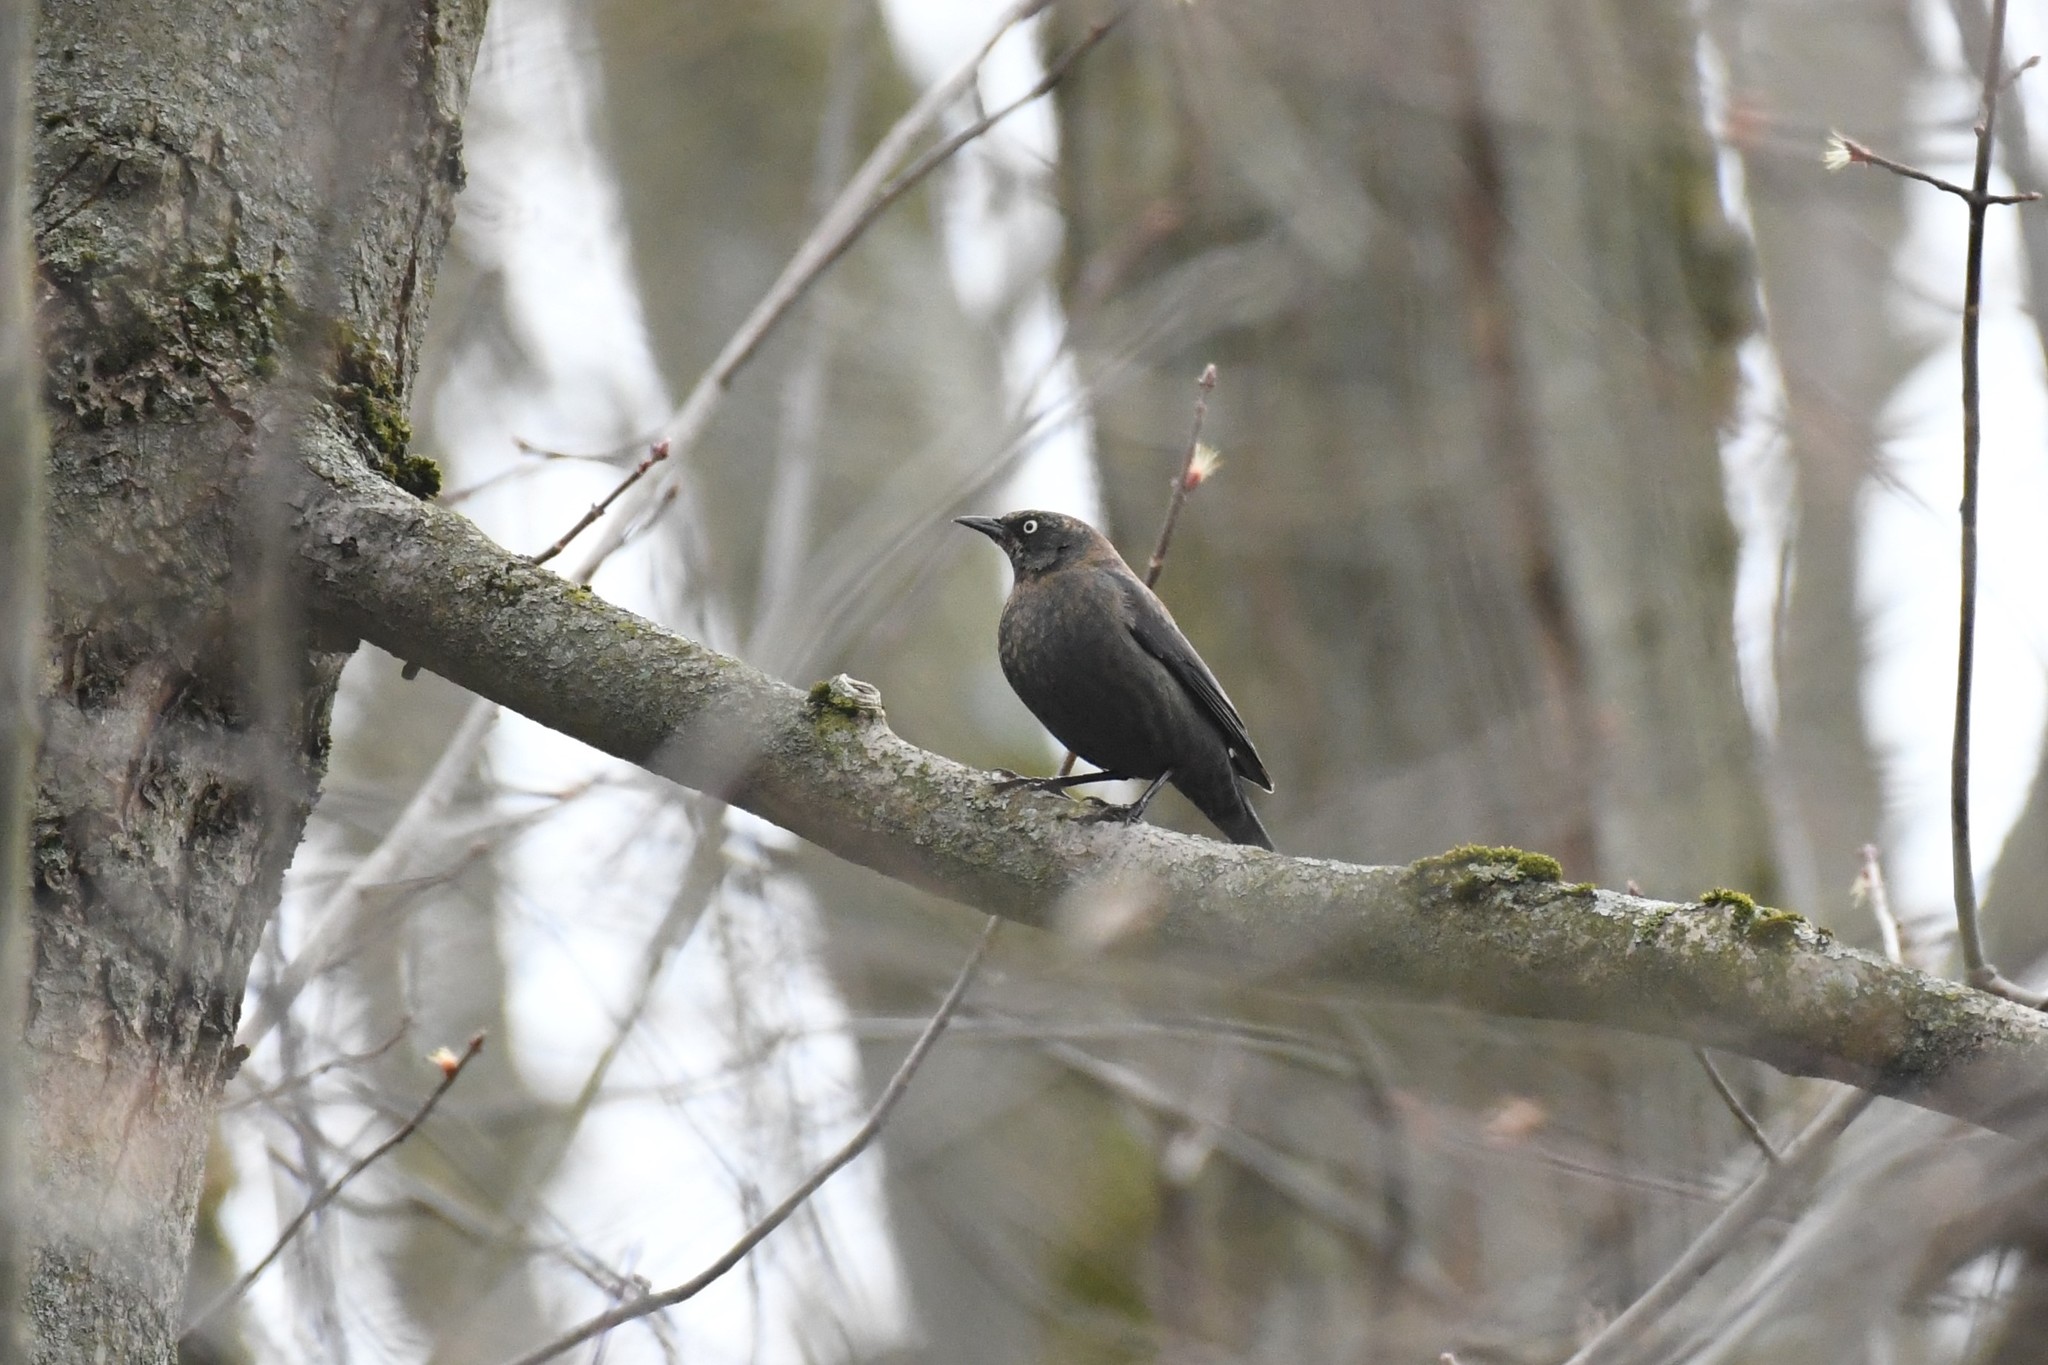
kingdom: Animalia
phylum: Chordata
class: Aves
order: Passeriformes
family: Icteridae
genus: Euphagus
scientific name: Euphagus carolinus
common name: Rusty blackbird
